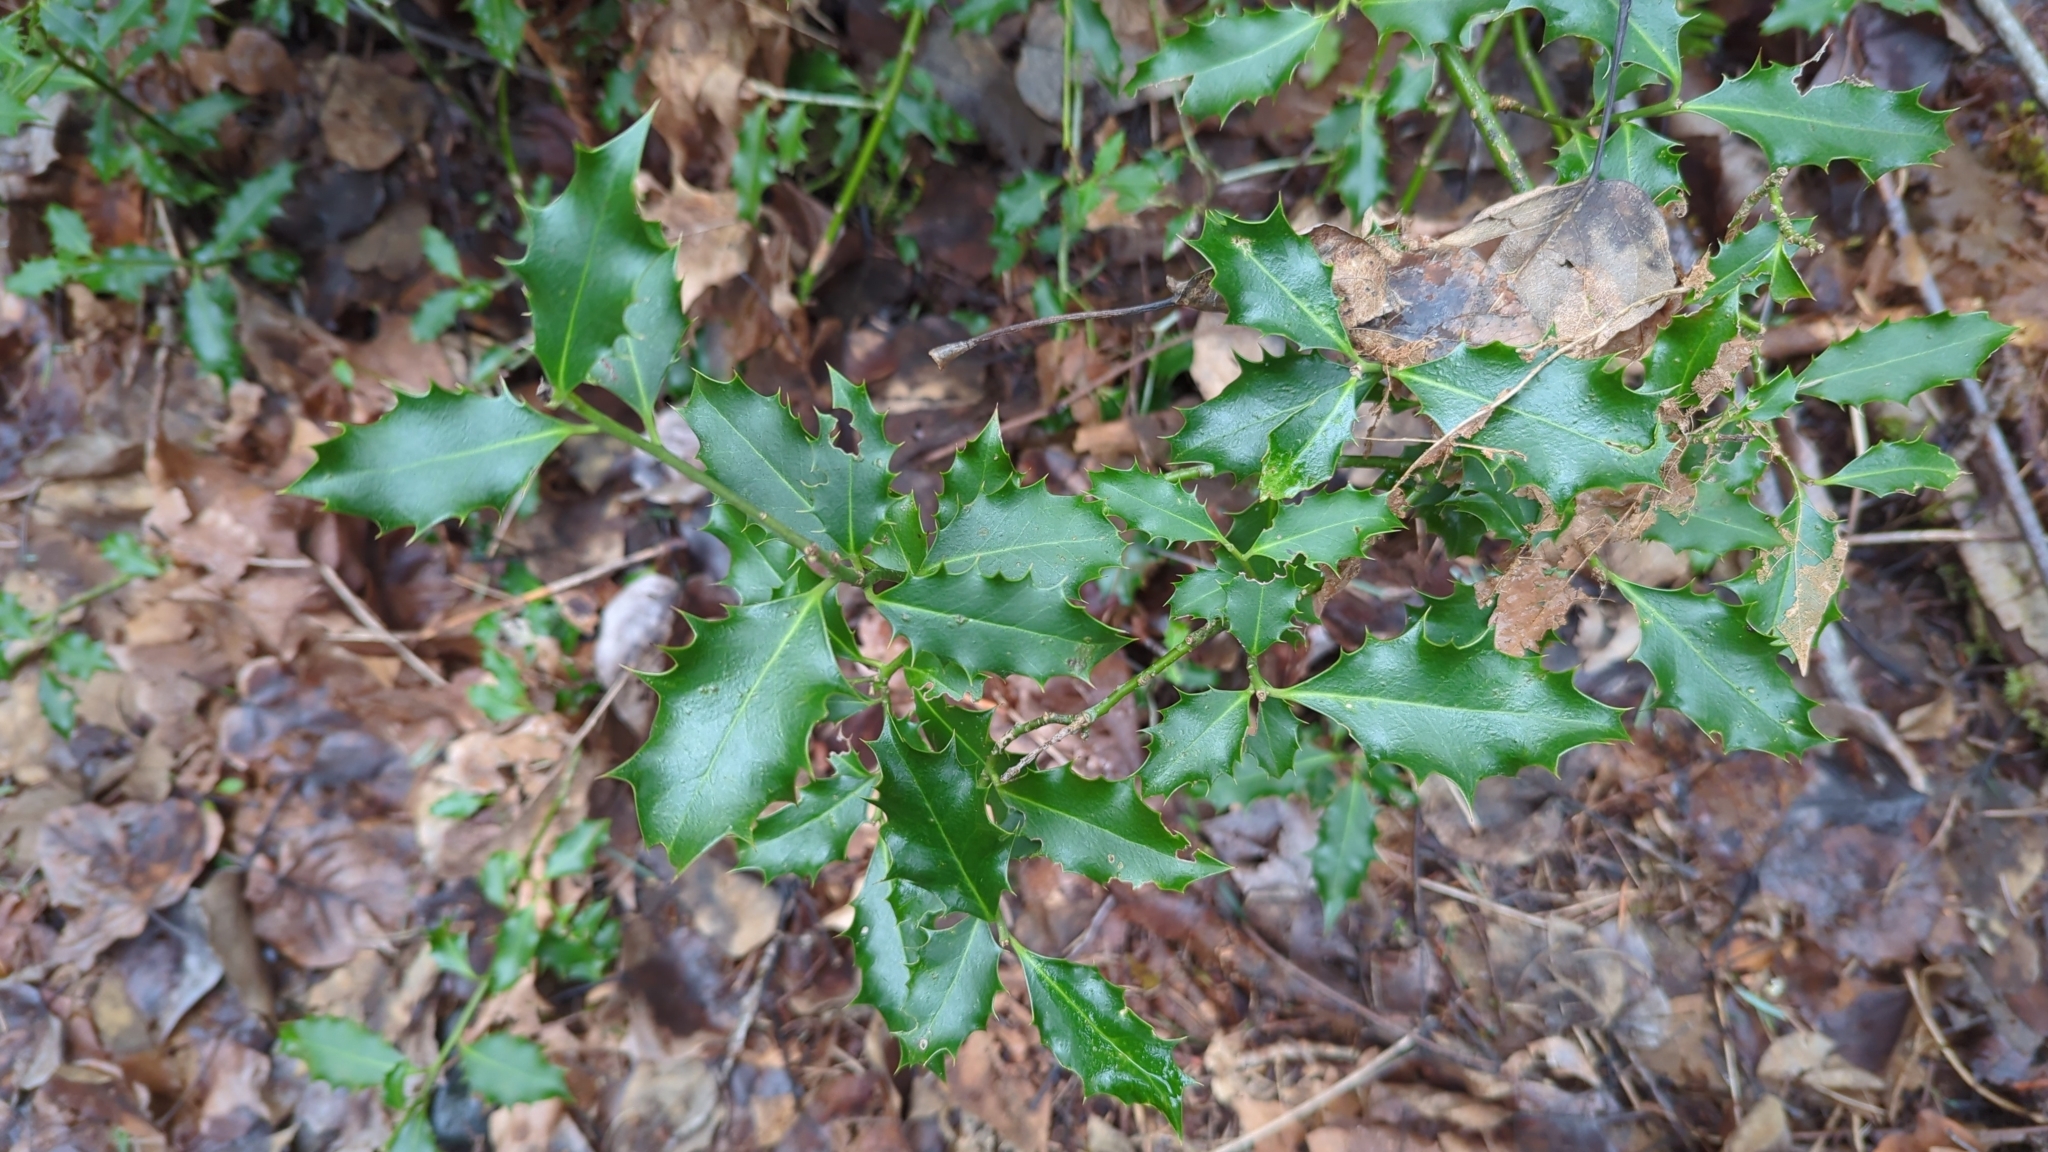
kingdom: Plantae
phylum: Tracheophyta
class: Magnoliopsida
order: Aquifoliales
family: Aquifoliaceae
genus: Ilex
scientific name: Ilex aquifolium
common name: English holly
